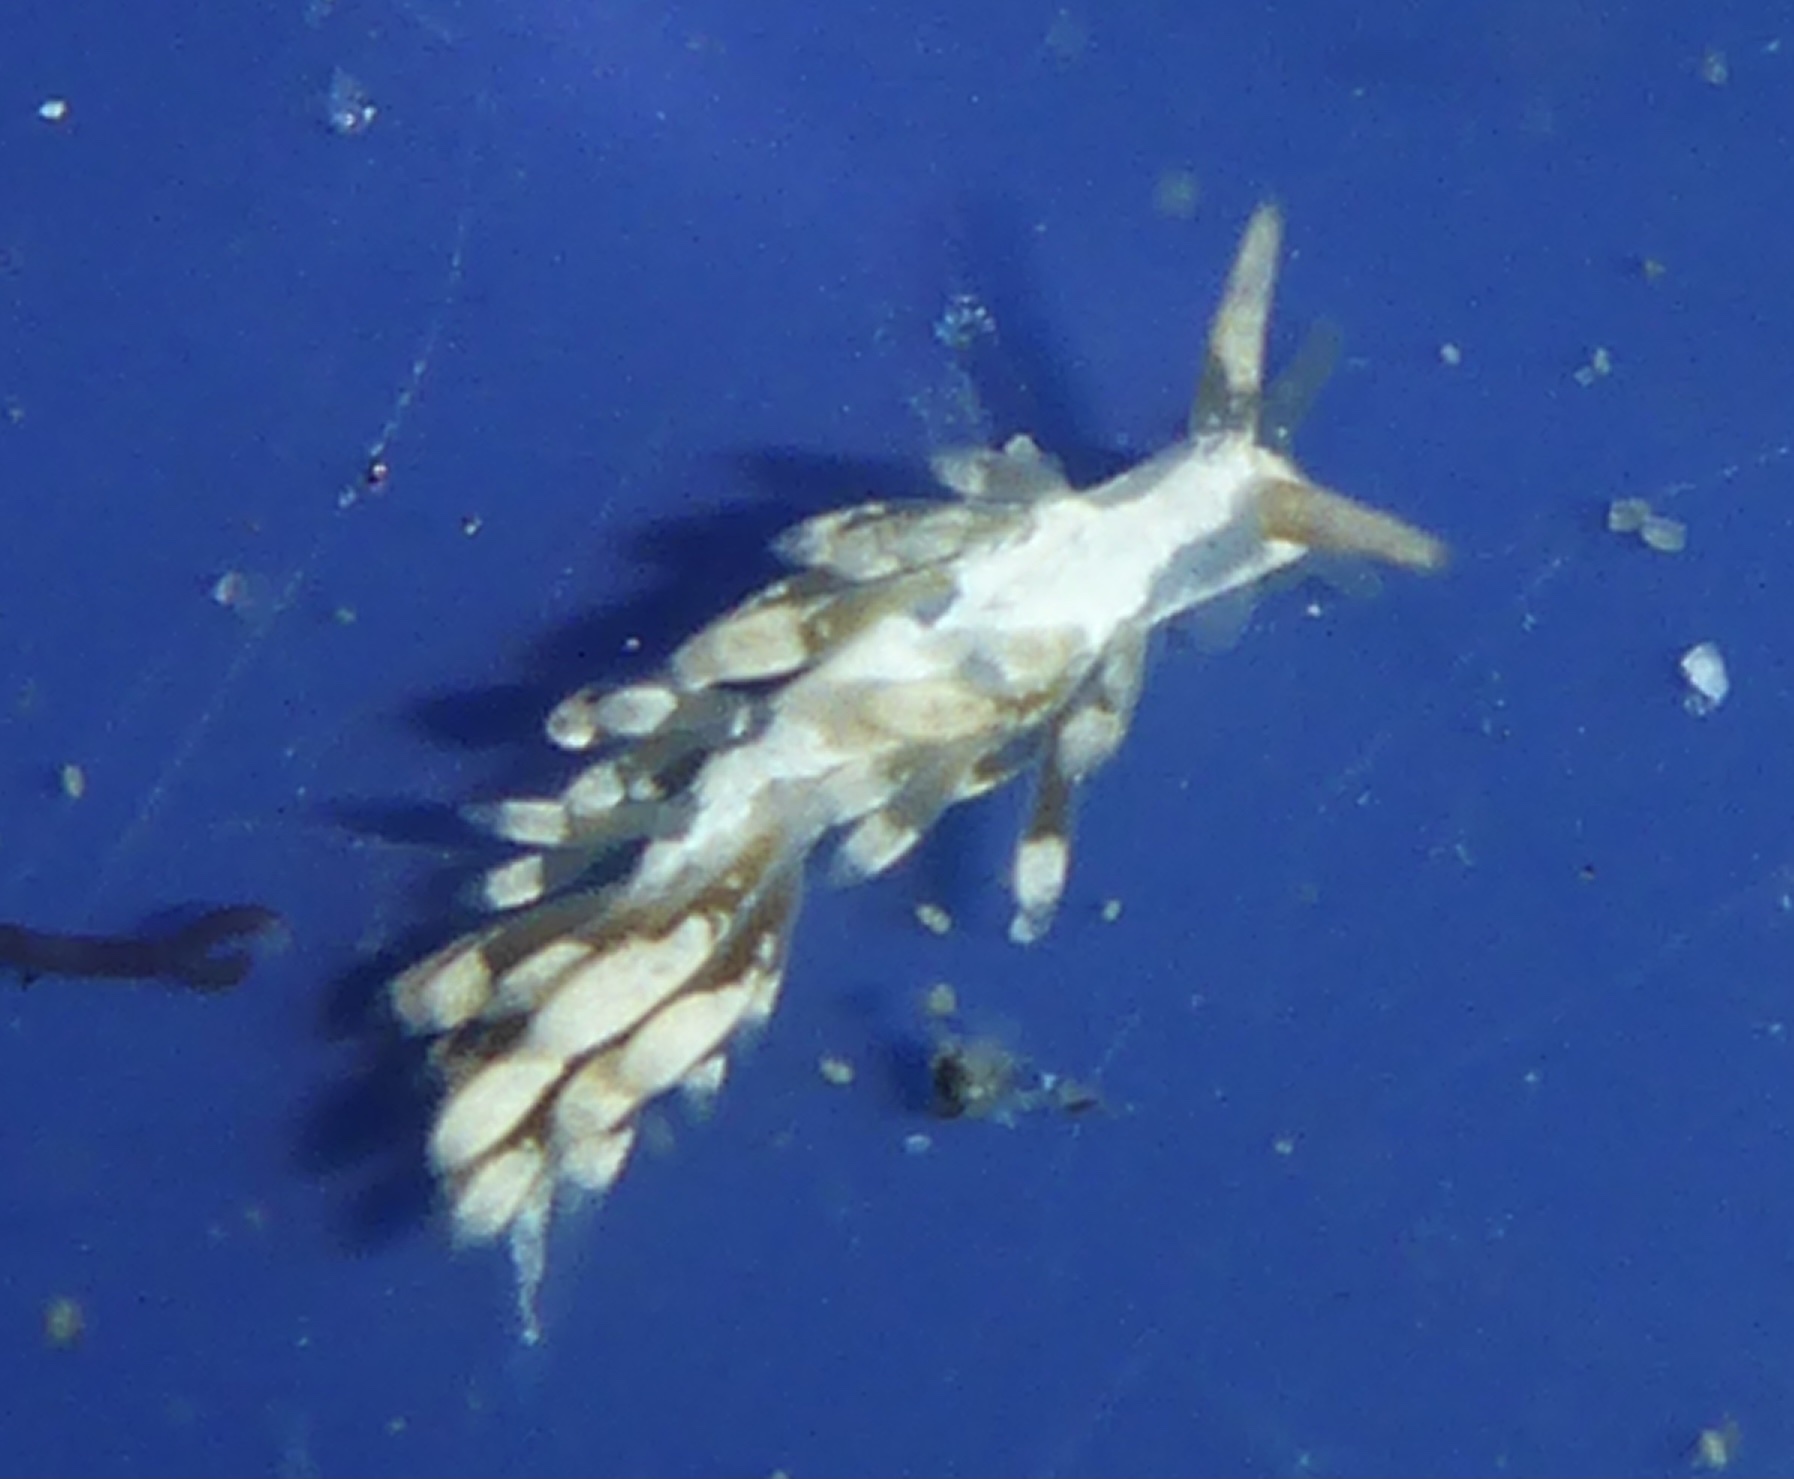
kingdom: Animalia
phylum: Mollusca
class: Gastropoda
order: Nudibranchia
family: Trinchesiidae
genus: Trinchesia
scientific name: Trinchesia albocrusta
